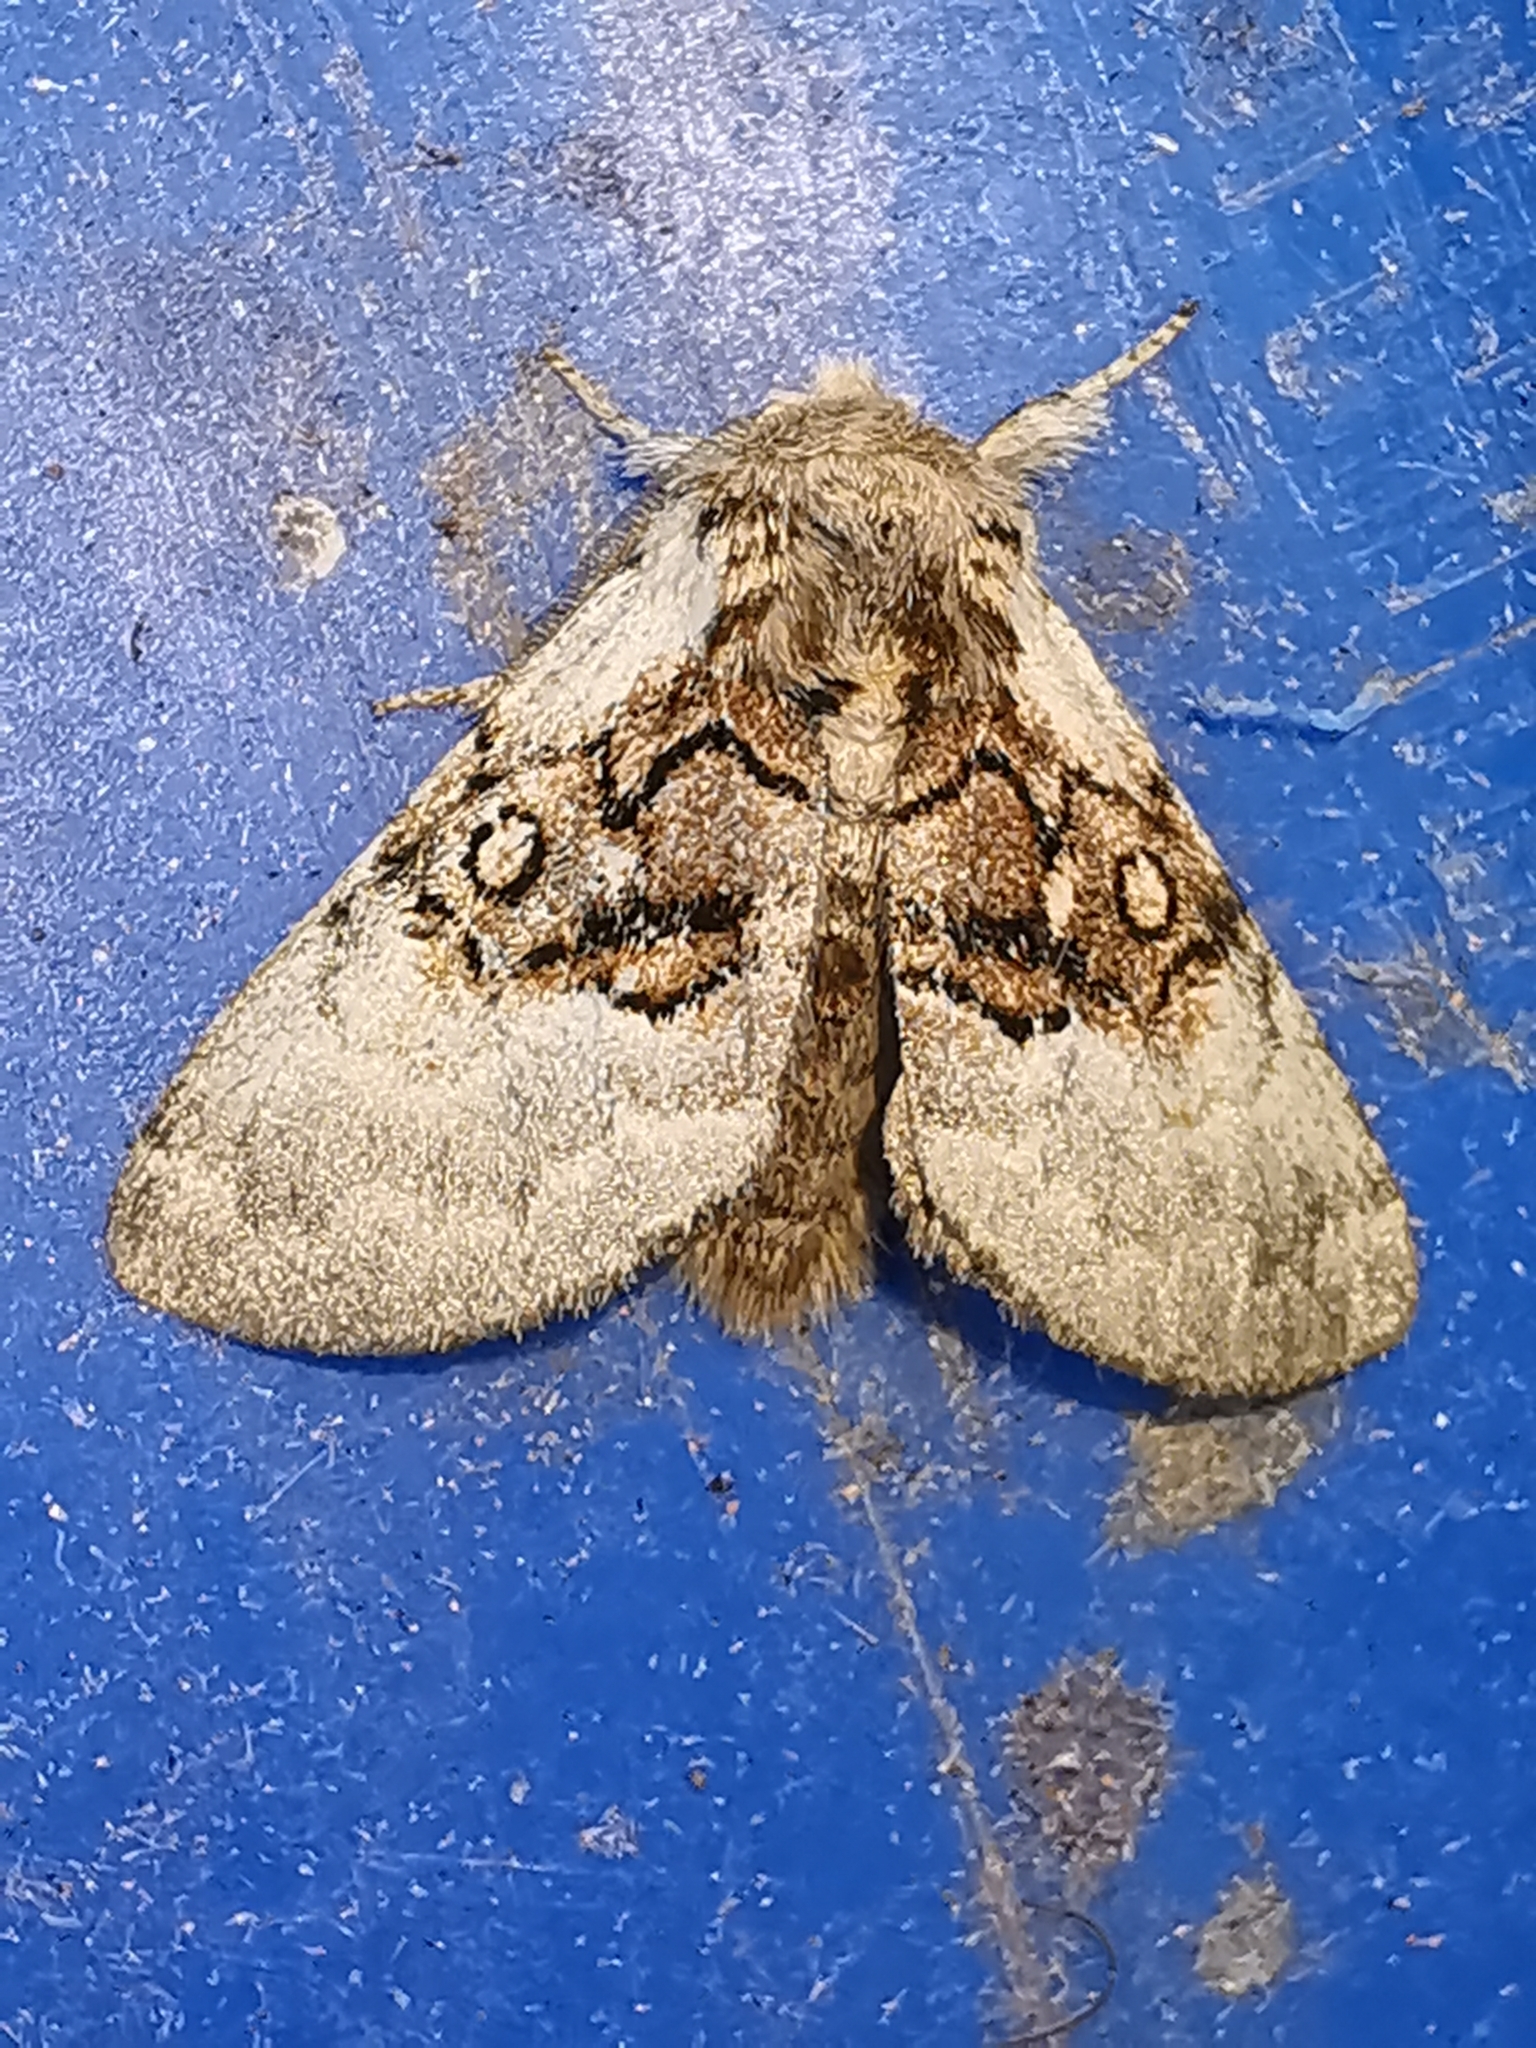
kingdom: Animalia
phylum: Arthropoda
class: Insecta
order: Lepidoptera
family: Noctuidae
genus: Colocasia
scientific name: Colocasia coryli
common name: Nut-tree tussock
